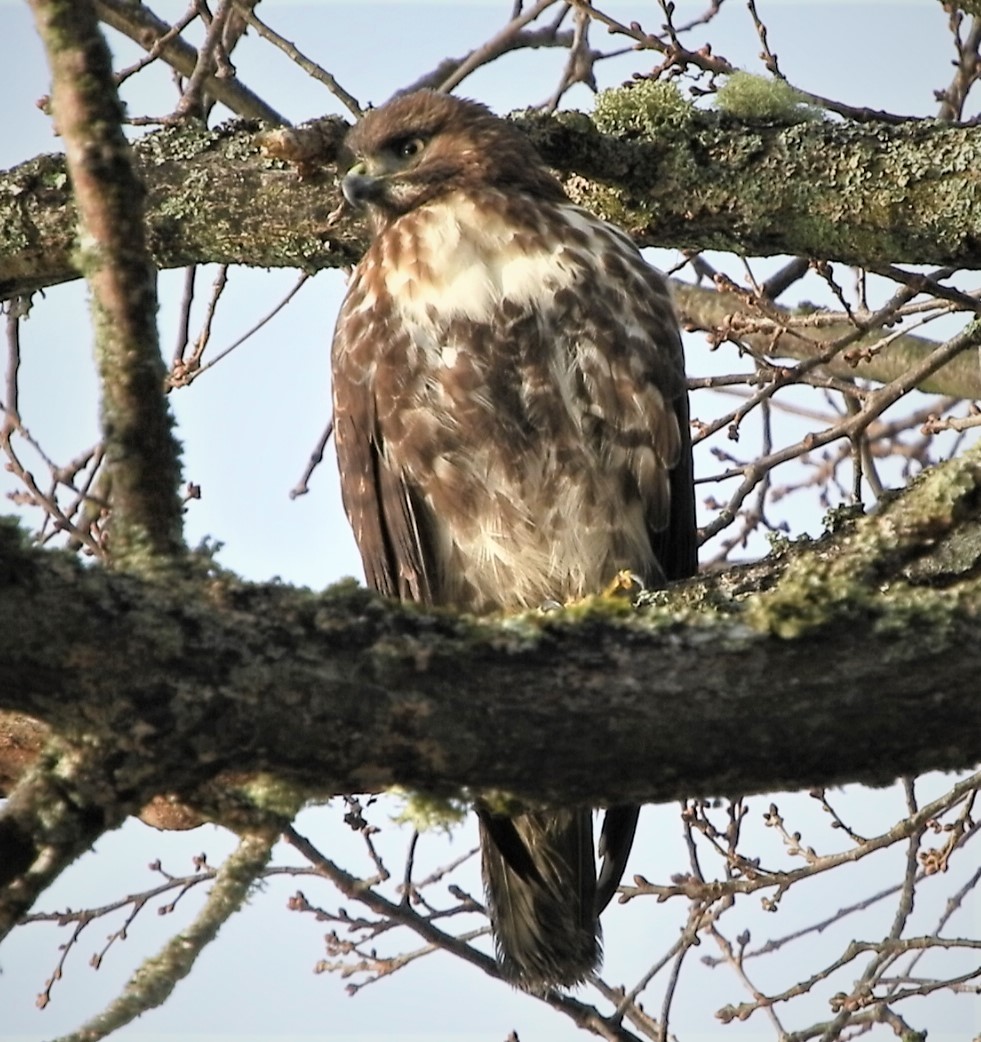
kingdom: Animalia
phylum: Chordata
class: Aves
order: Accipitriformes
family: Accipitridae
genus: Buteo
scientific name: Buteo jamaicensis
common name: Red-tailed hawk
